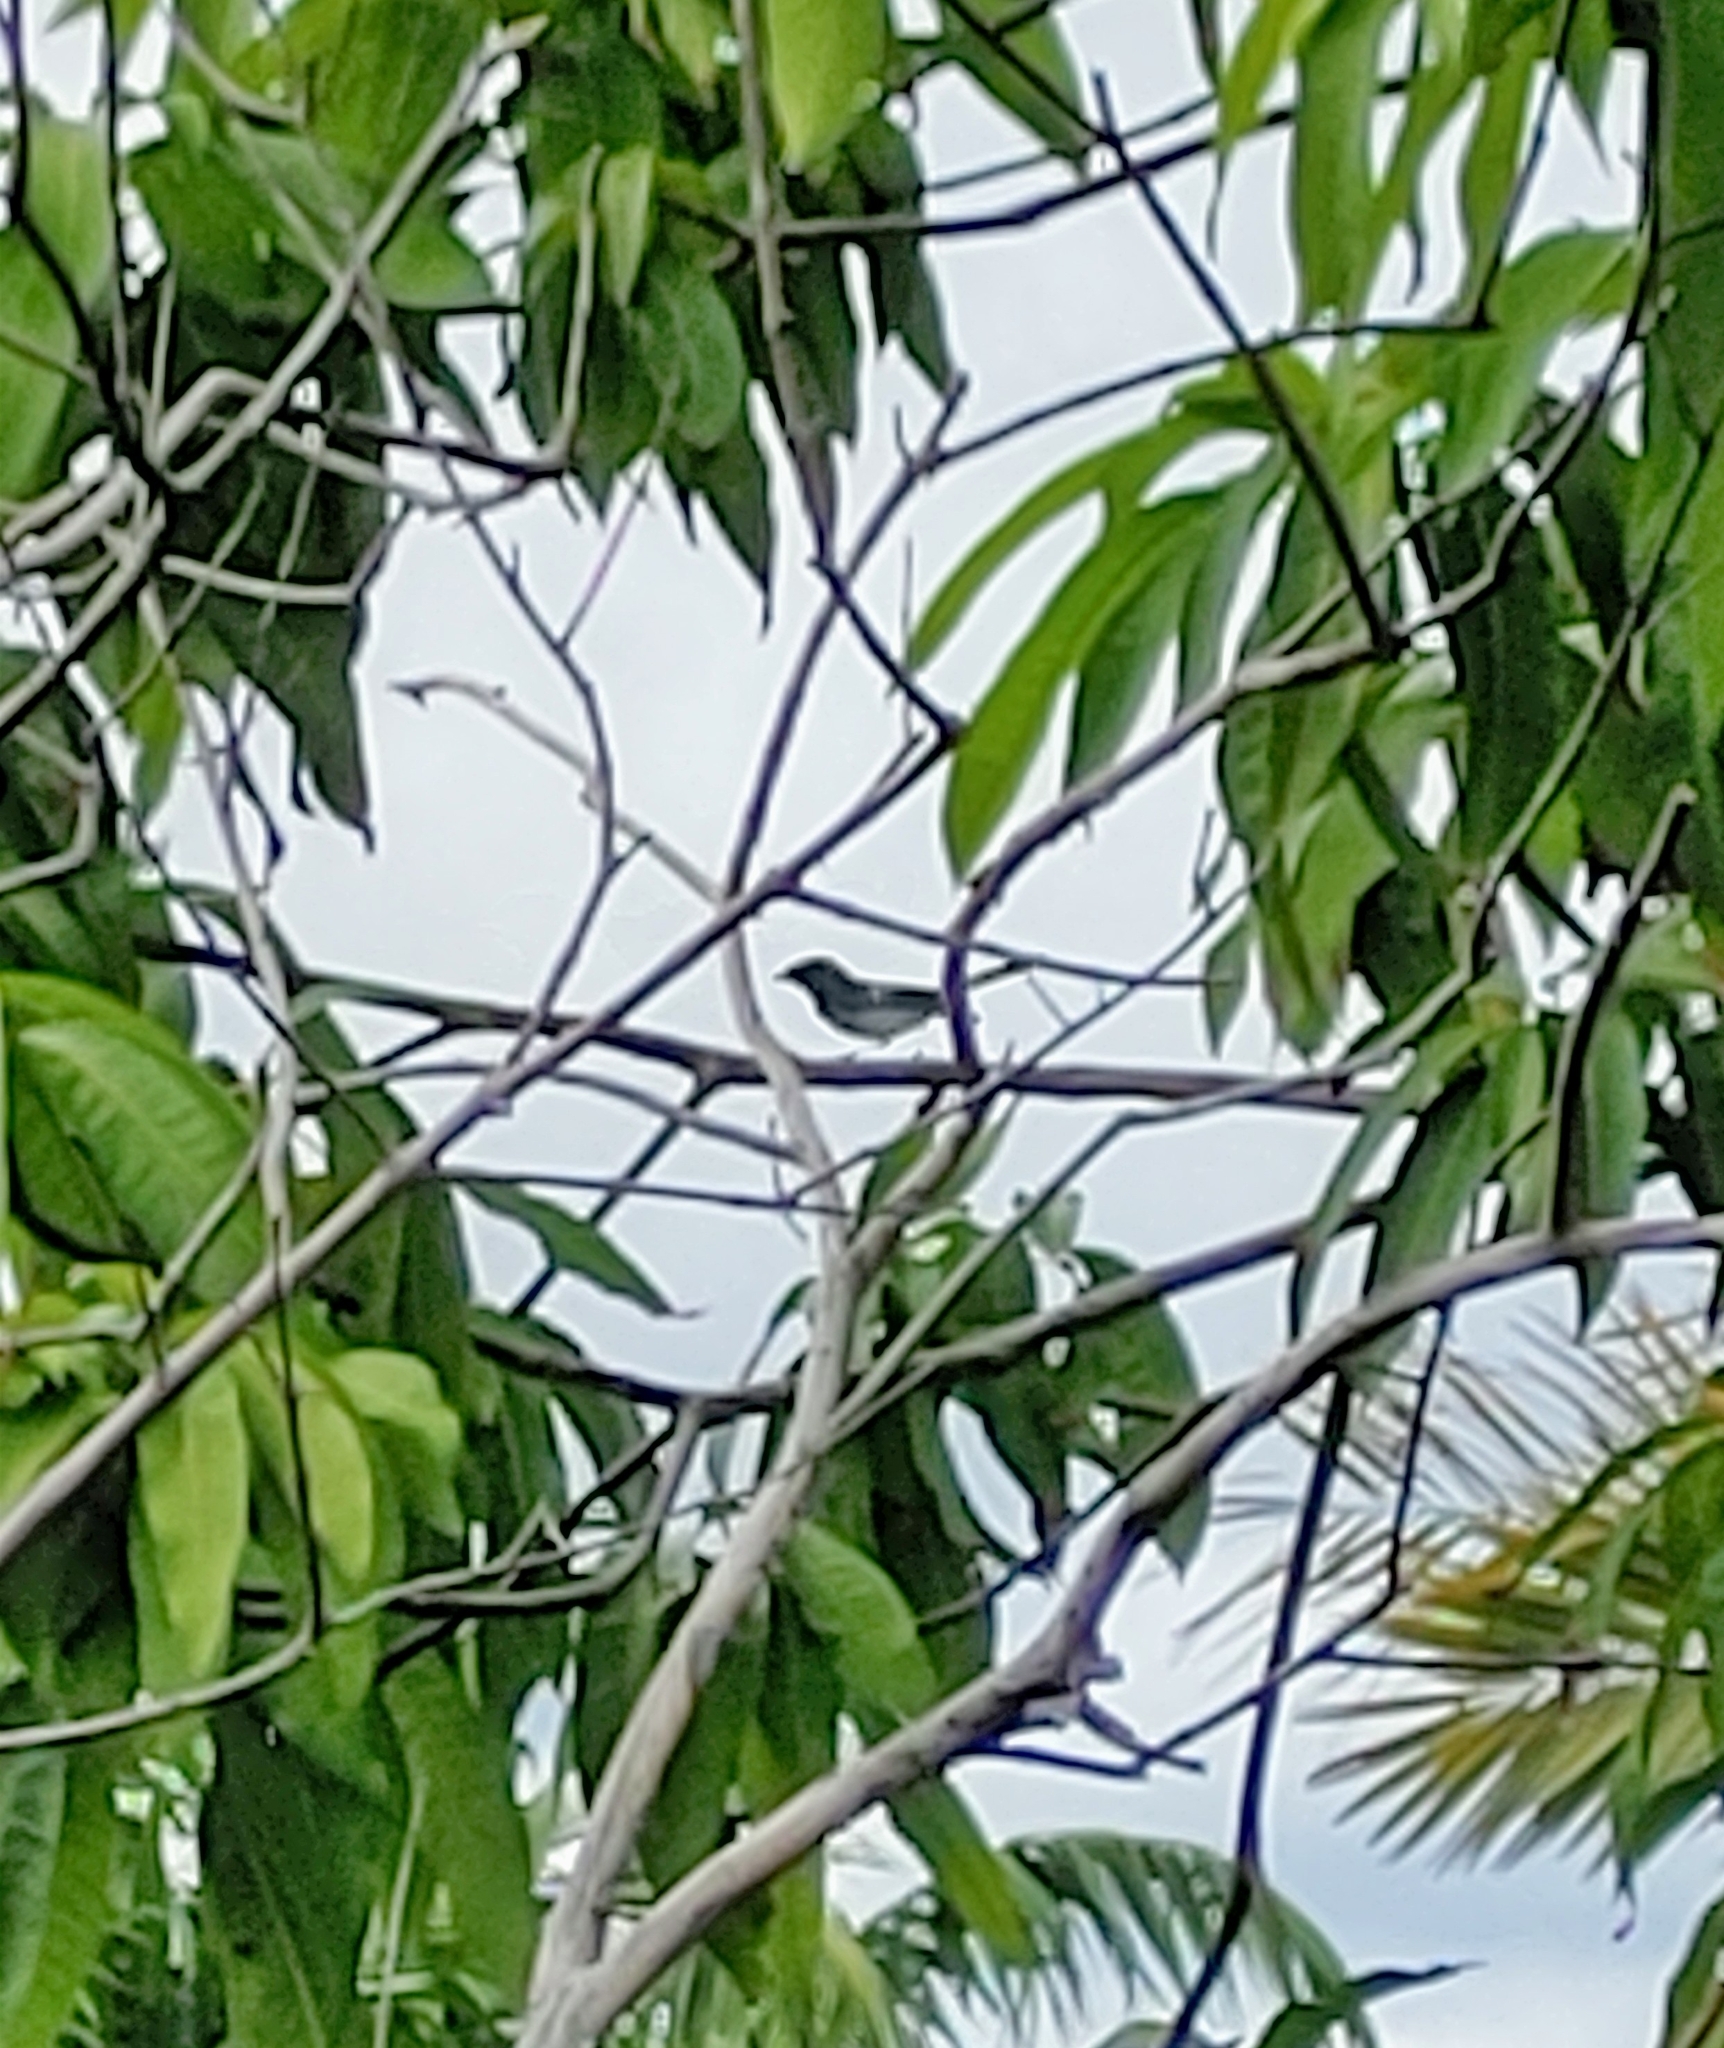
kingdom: Animalia
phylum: Chordata
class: Aves
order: Passeriformes
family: Parulidae
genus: Setophaga
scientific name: Setophaga ruticilla
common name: American redstart
